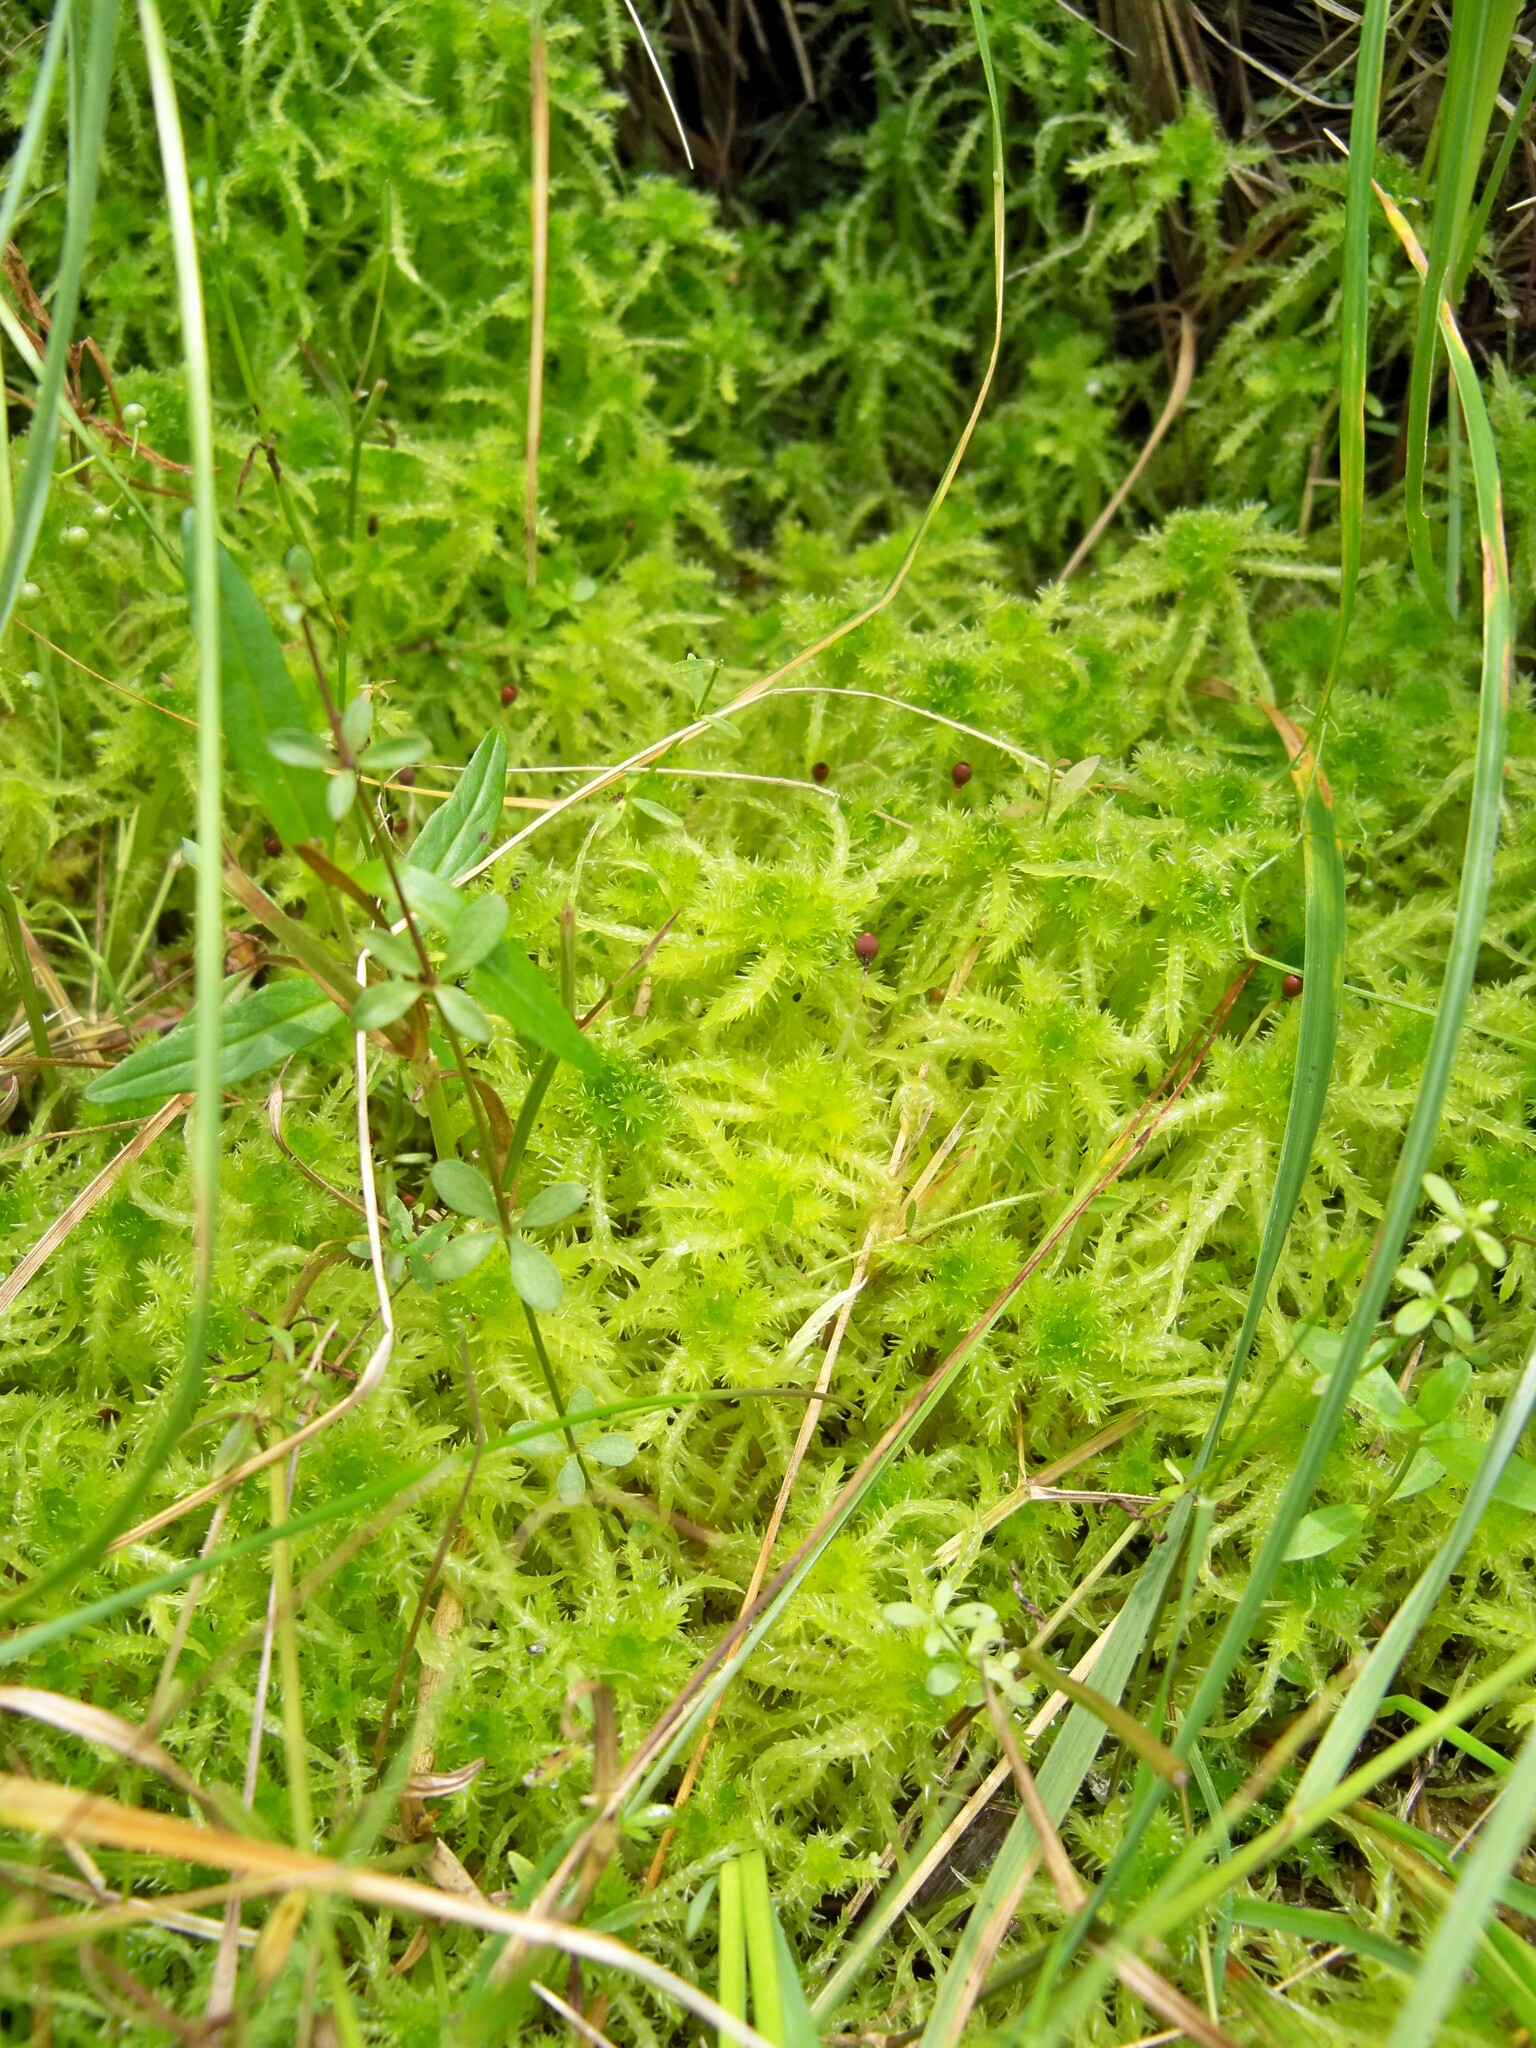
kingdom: Plantae
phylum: Bryophyta
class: Sphagnopsida
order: Sphagnales
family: Sphagnaceae
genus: Sphagnum
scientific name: Sphagnum squarrosum
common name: Shaggy peat moss
